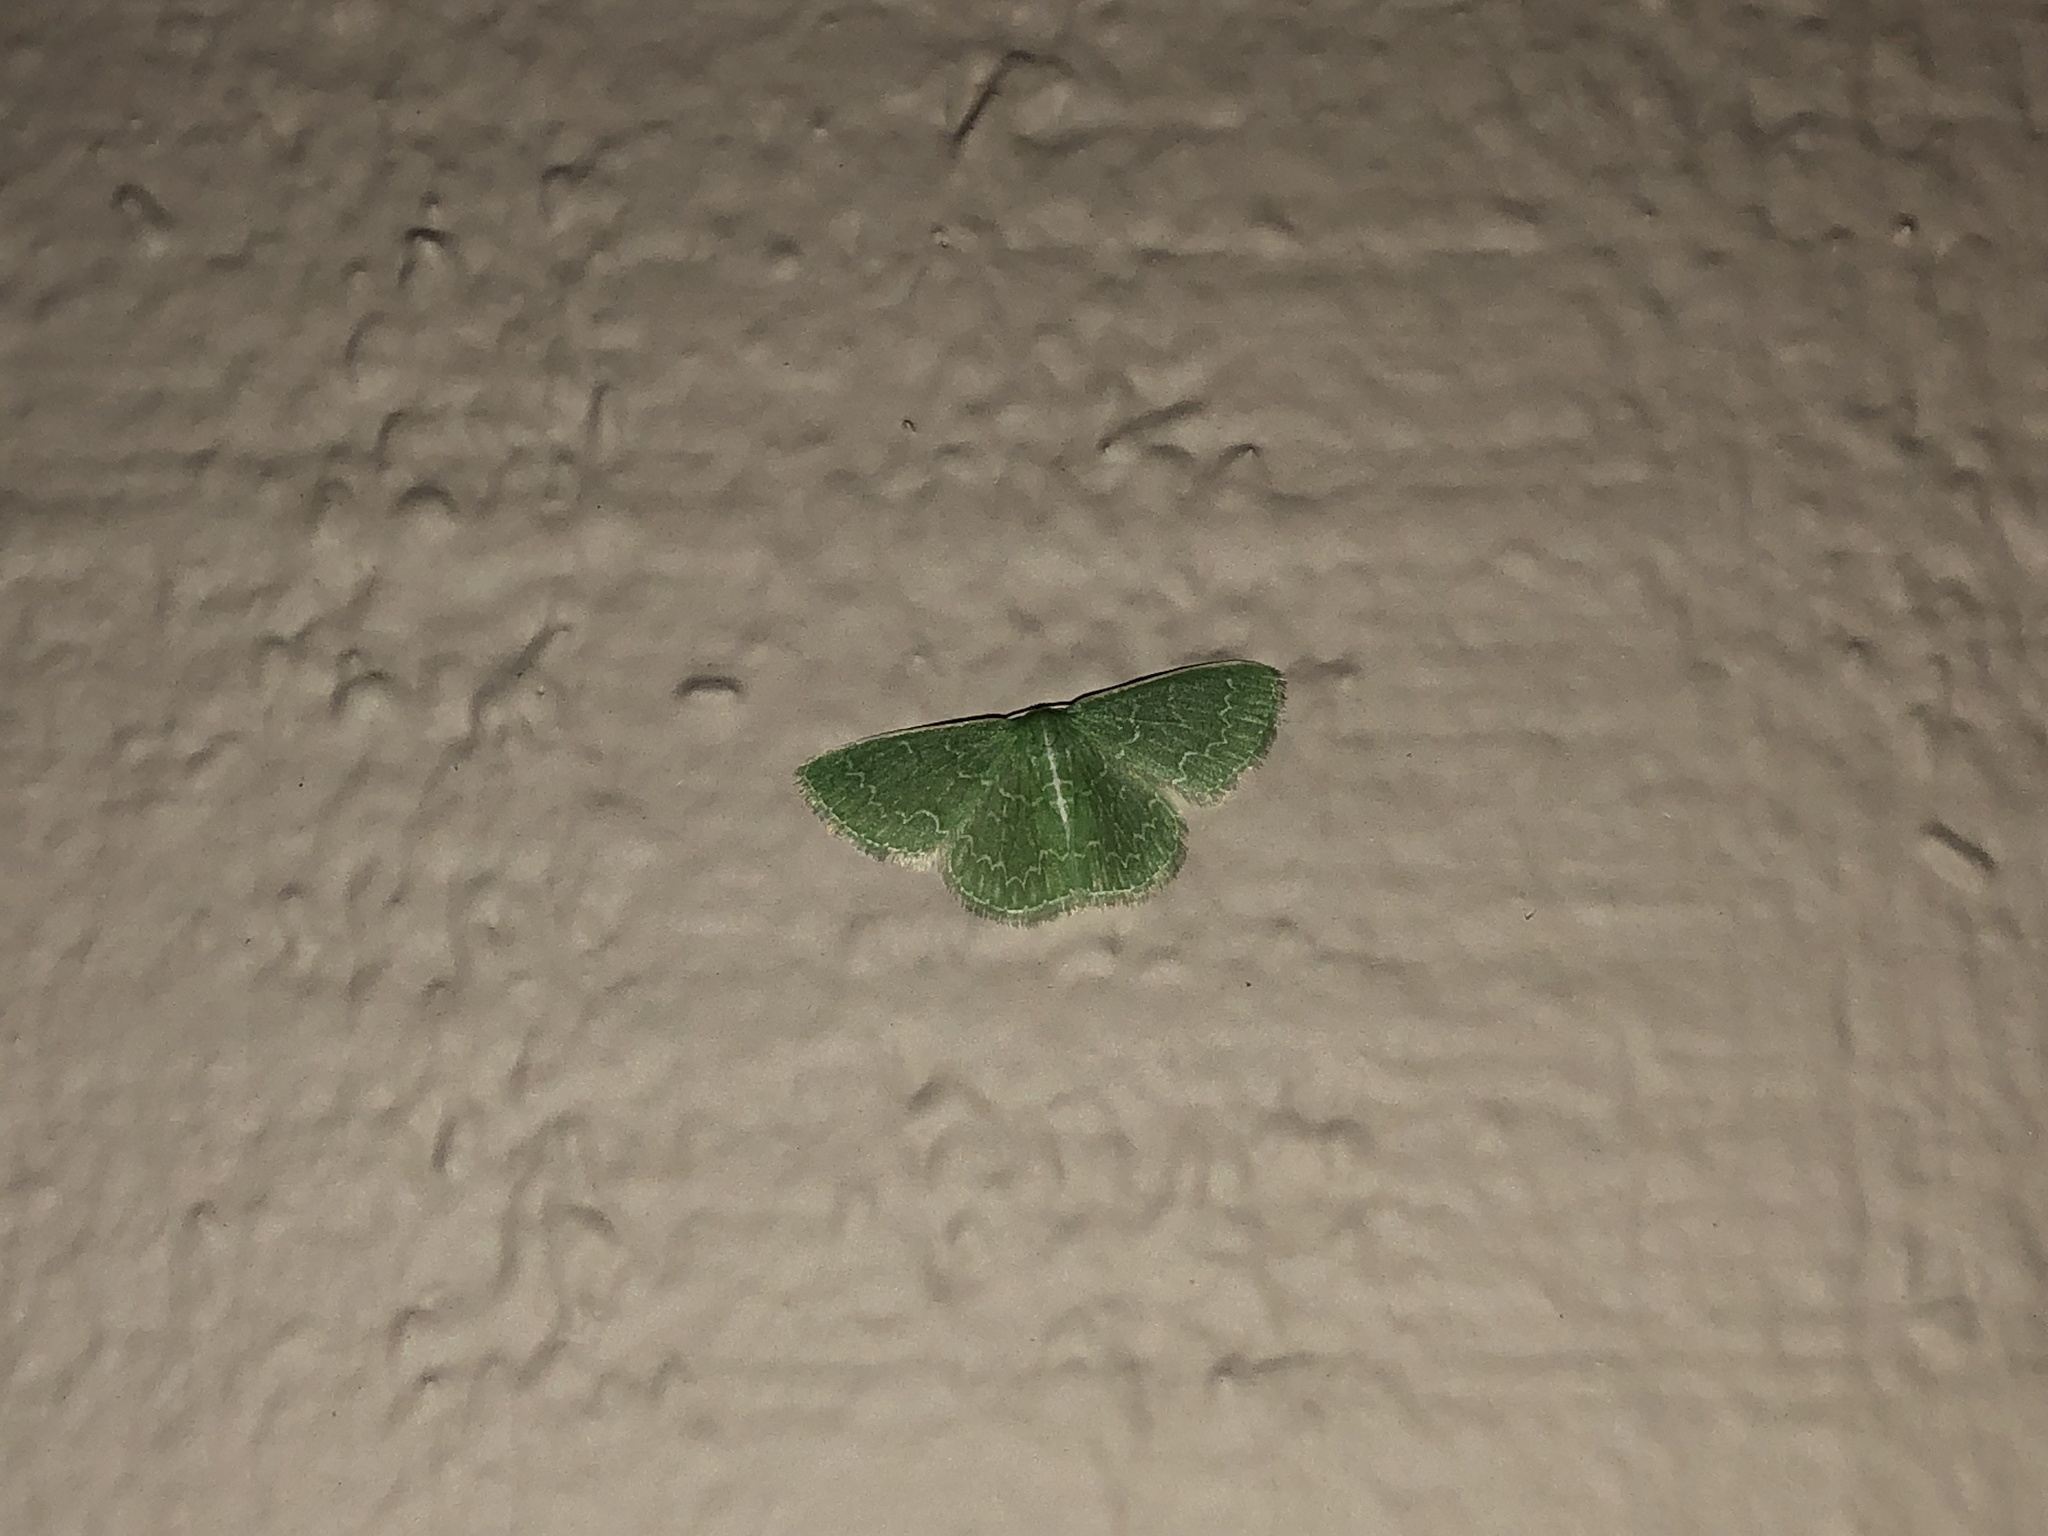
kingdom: Animalia
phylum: Arthropoda
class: Insecta
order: Lepidoptera
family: Geometridae
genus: Synchlora
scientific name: Synchlora frondaria
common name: Southern emerald
